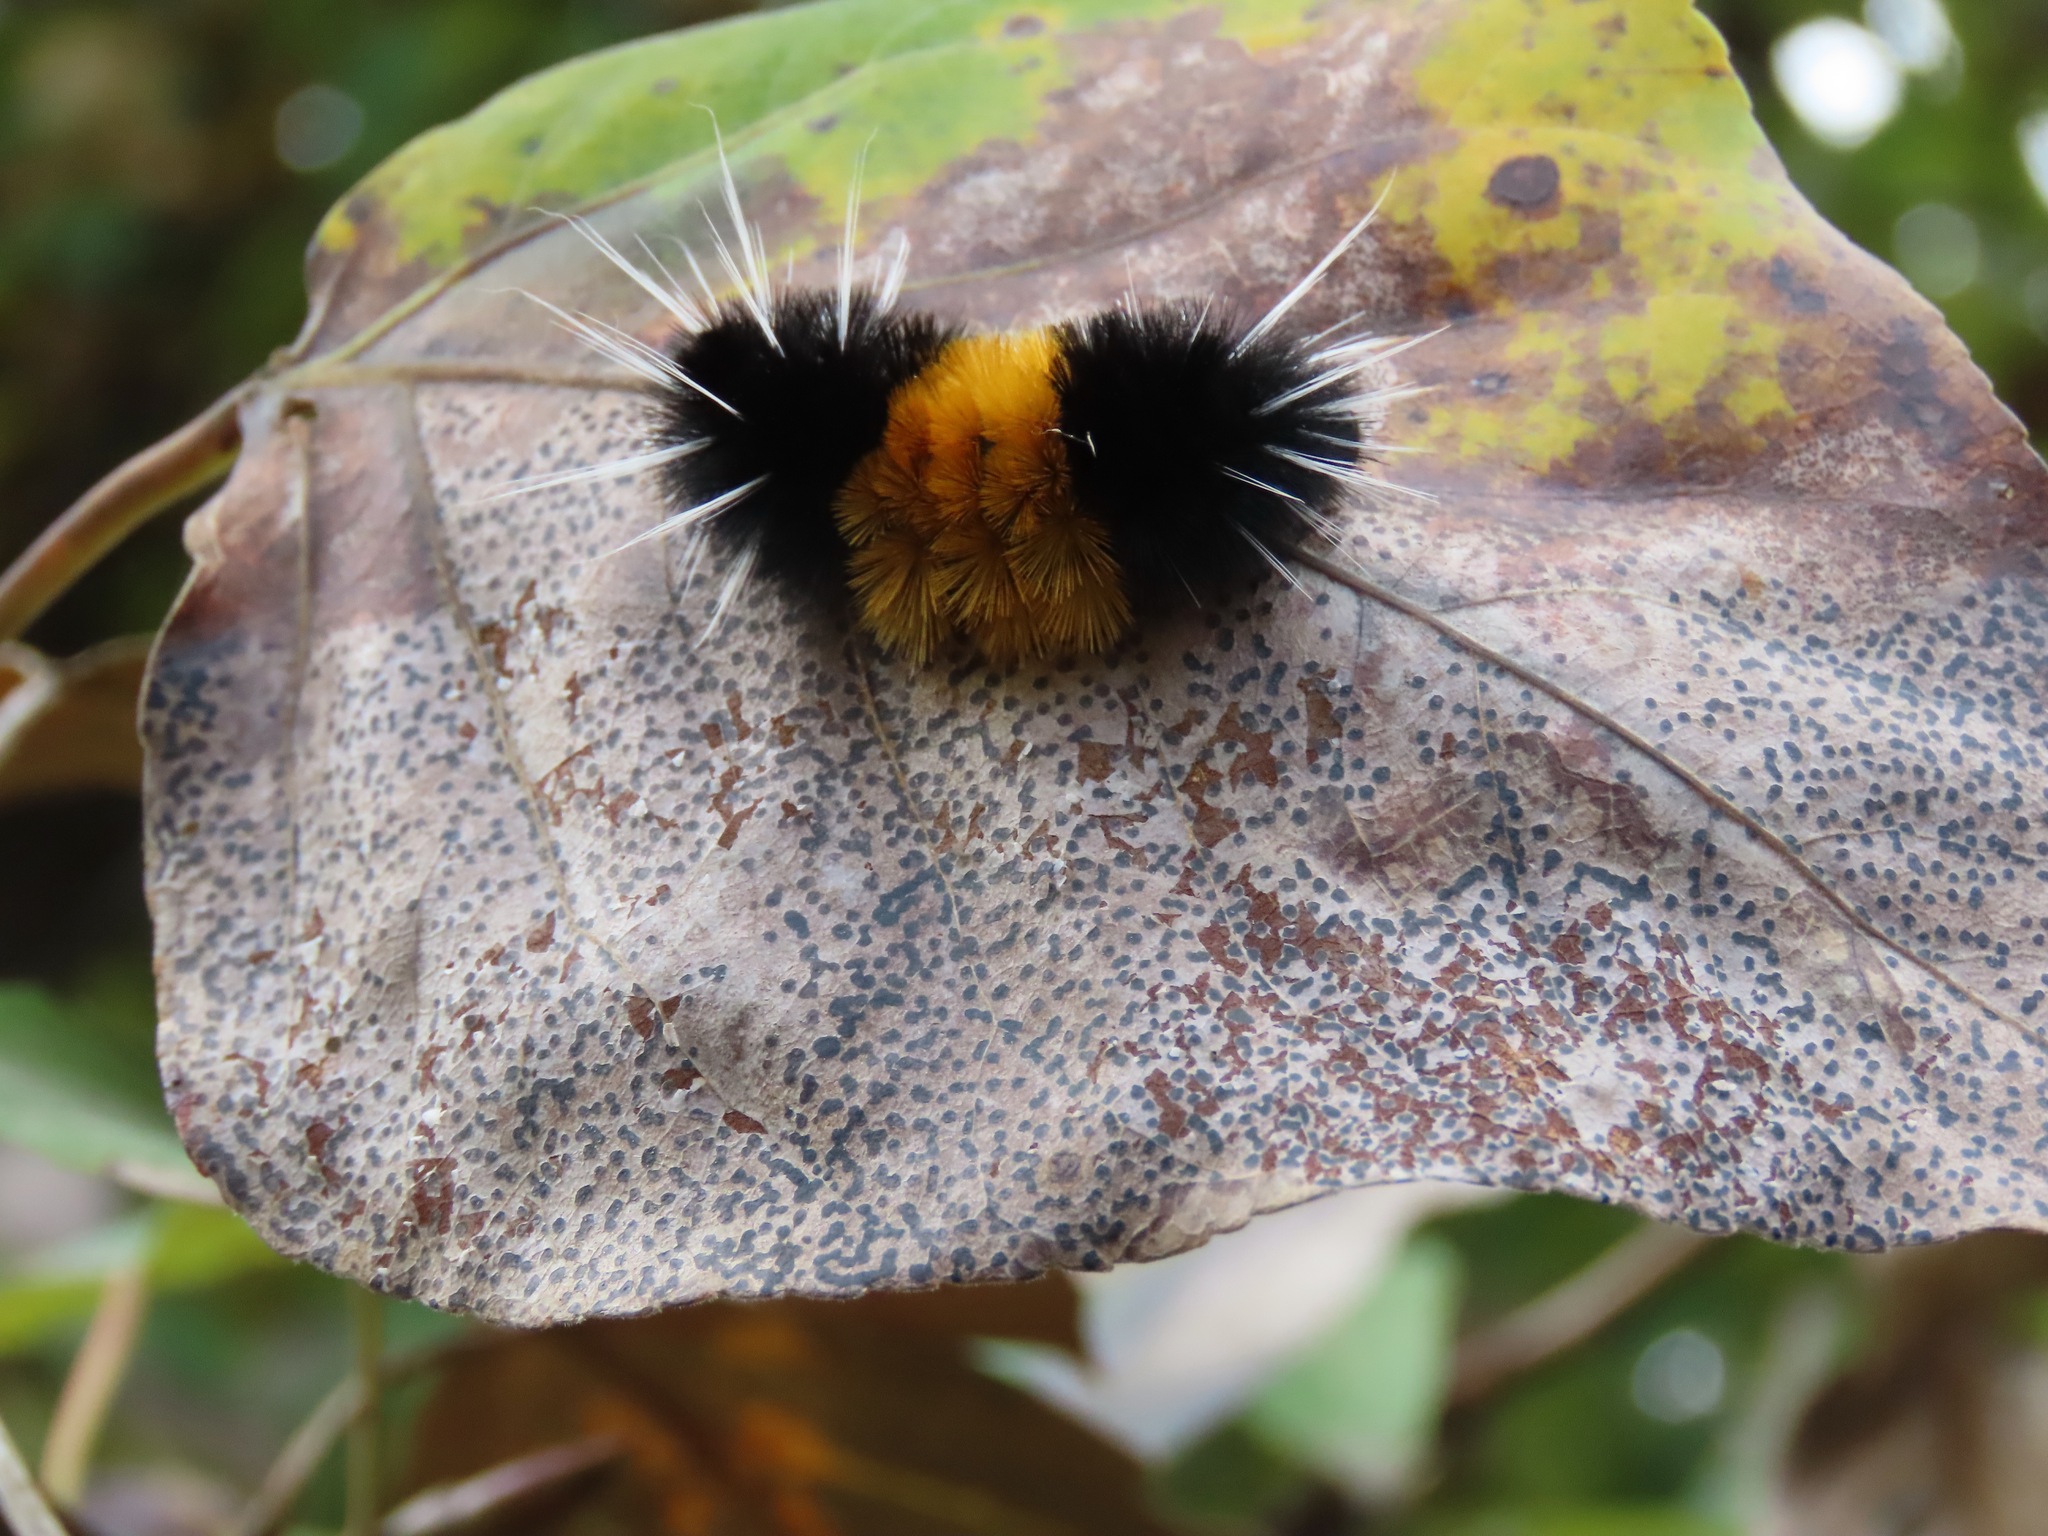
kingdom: Animalia
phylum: Arthropoda
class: Insecta
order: Lepidoptera
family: Erebidae
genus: Lophocampa
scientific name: Lophocampa maculata
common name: Spotted tussock moth
